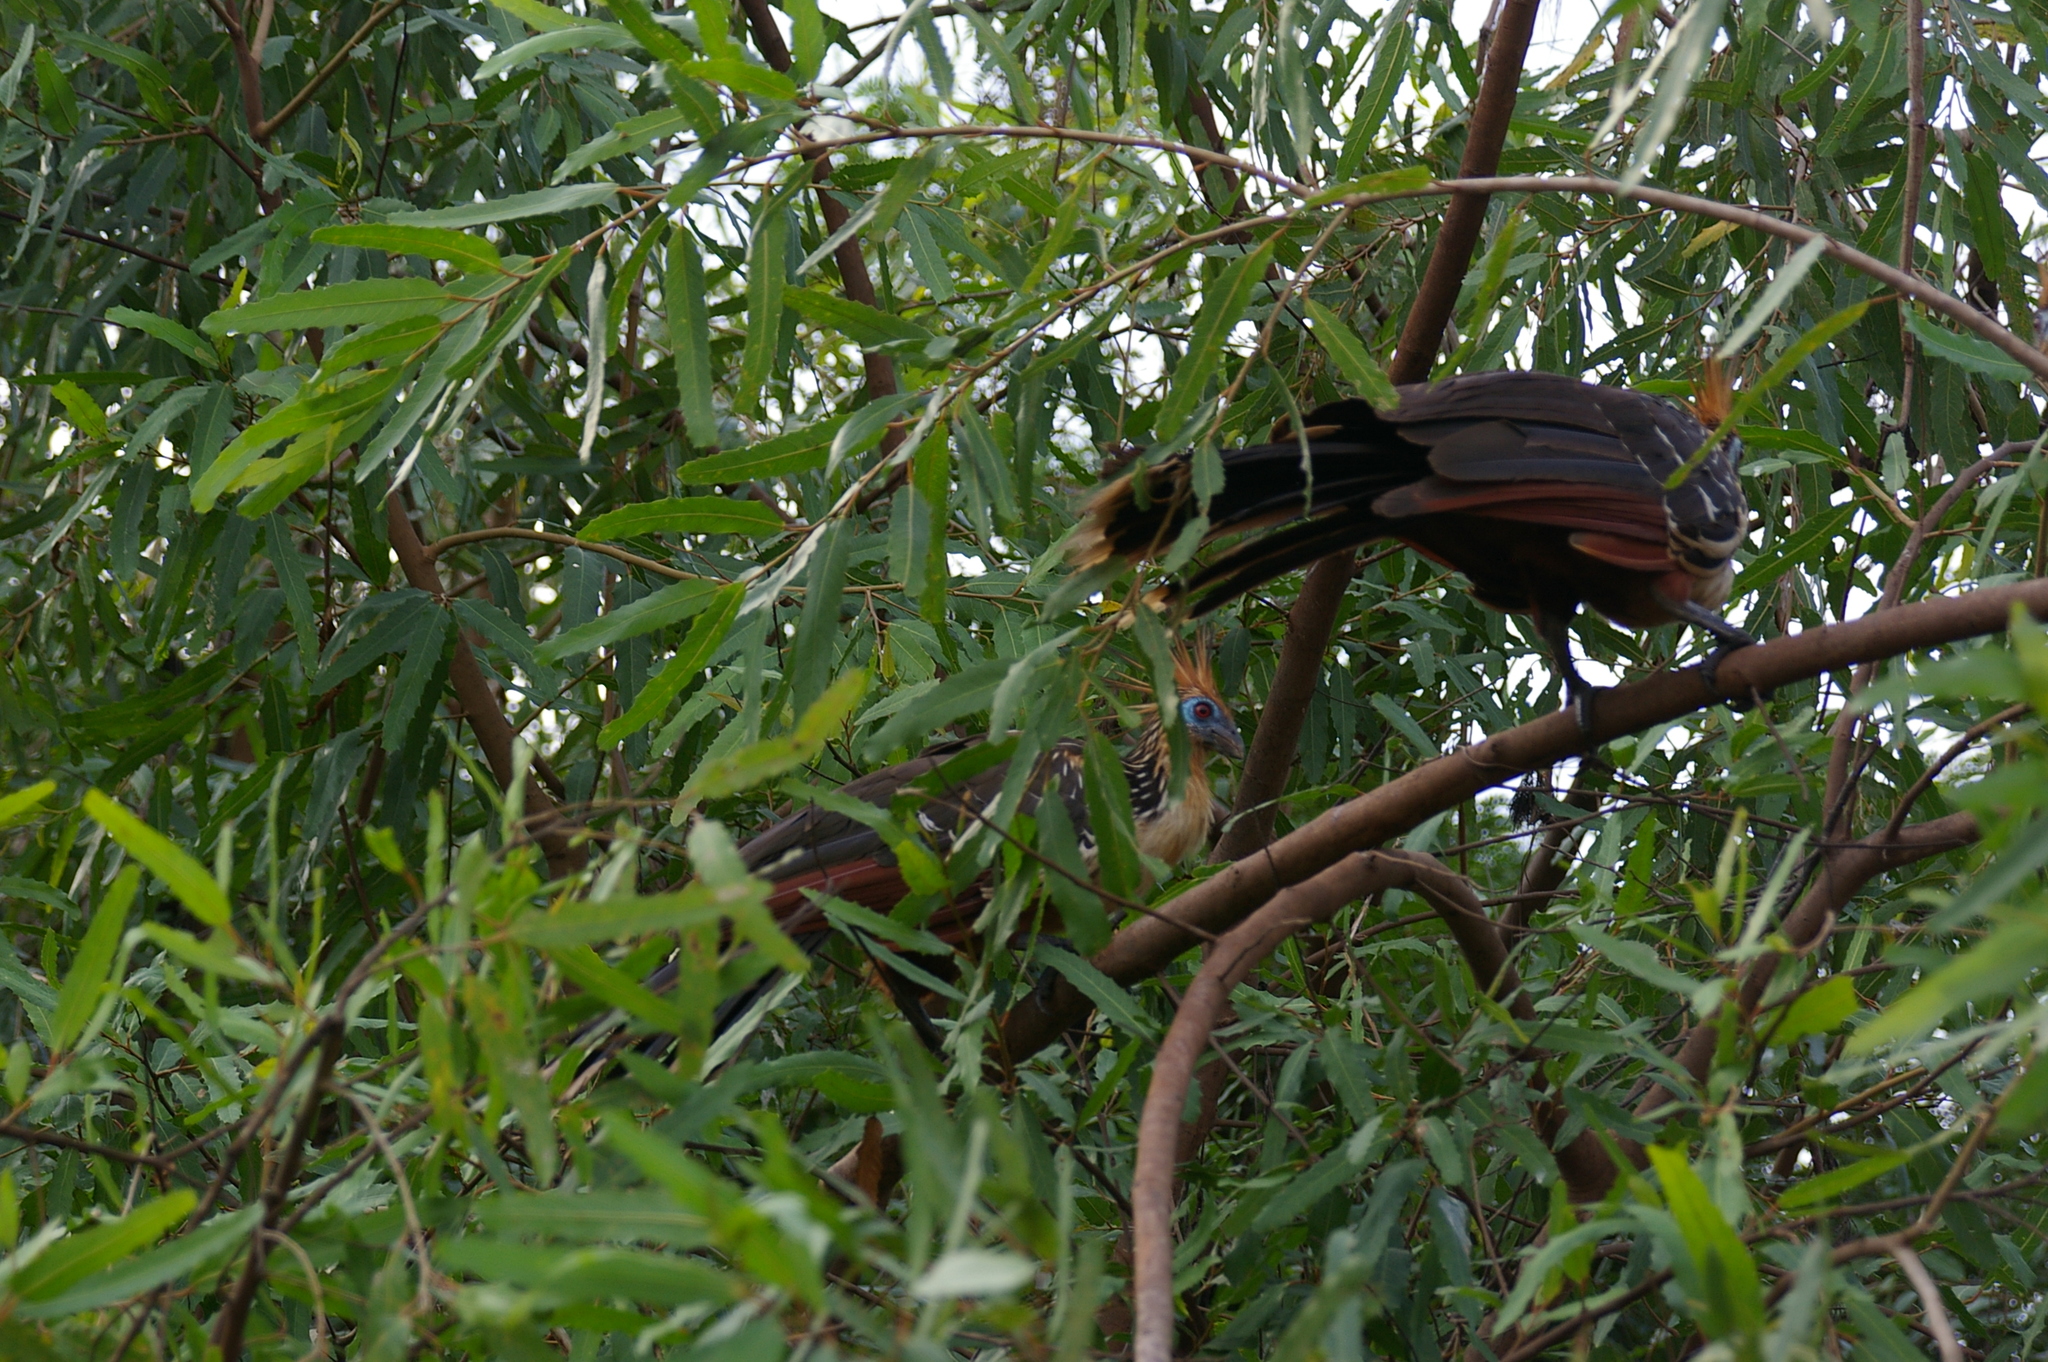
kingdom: Animalia
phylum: Chordata
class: Aves
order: Opisthocomiformes
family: Opisthocomidae
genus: Opisthocomus
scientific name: Opisthocomus hoazin
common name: Hoatzin
